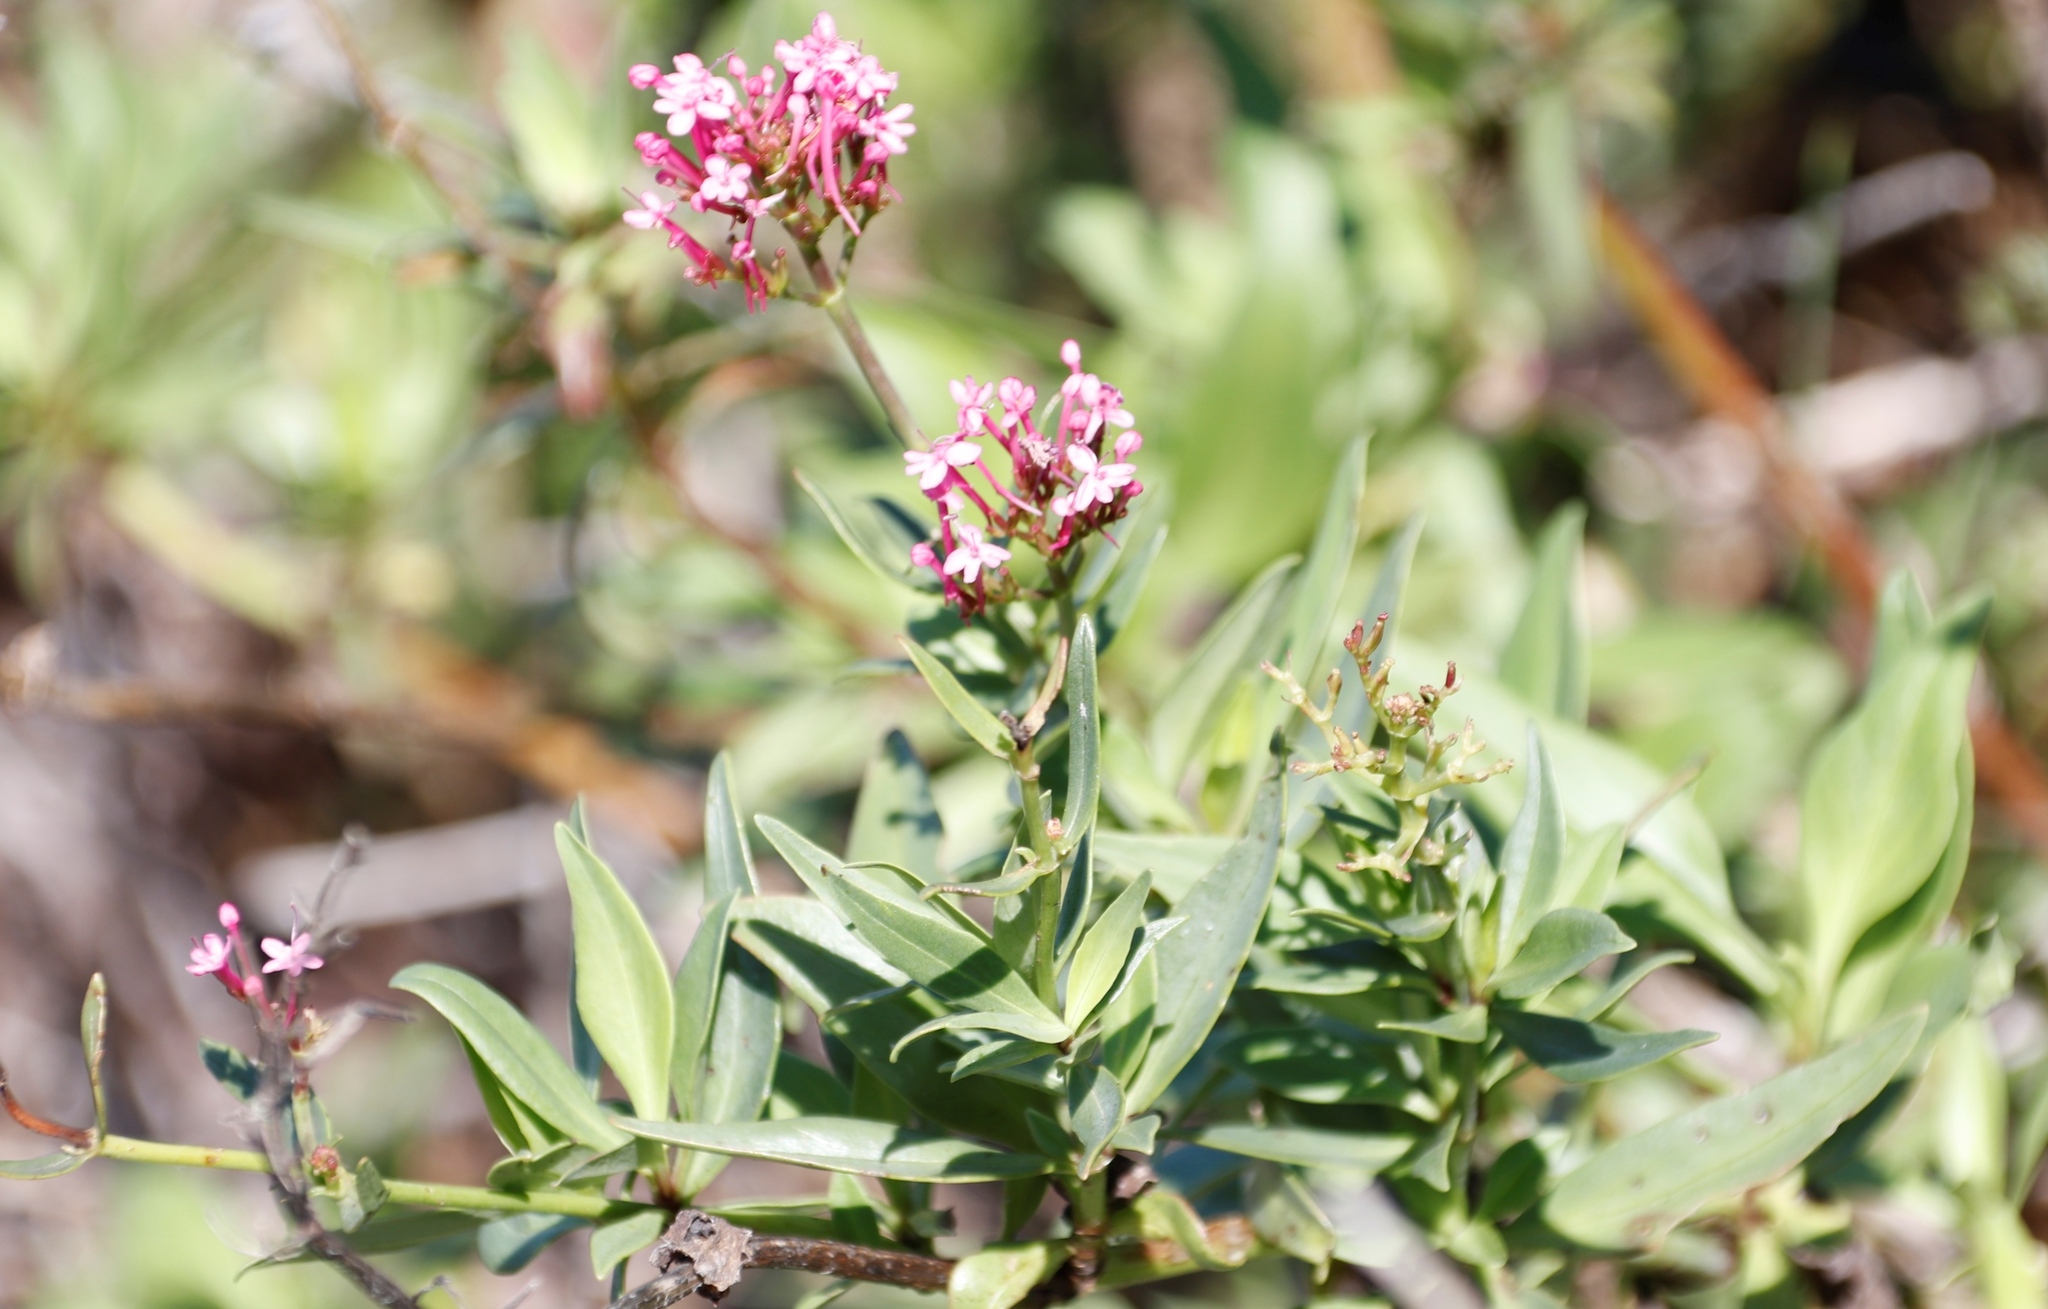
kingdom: Plantae
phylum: Tracheophyta
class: Magnoliopsida
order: Dipsacales
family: Caprifoliaceae
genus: Centranthus
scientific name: Centranthus ruber
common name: Red valerian
